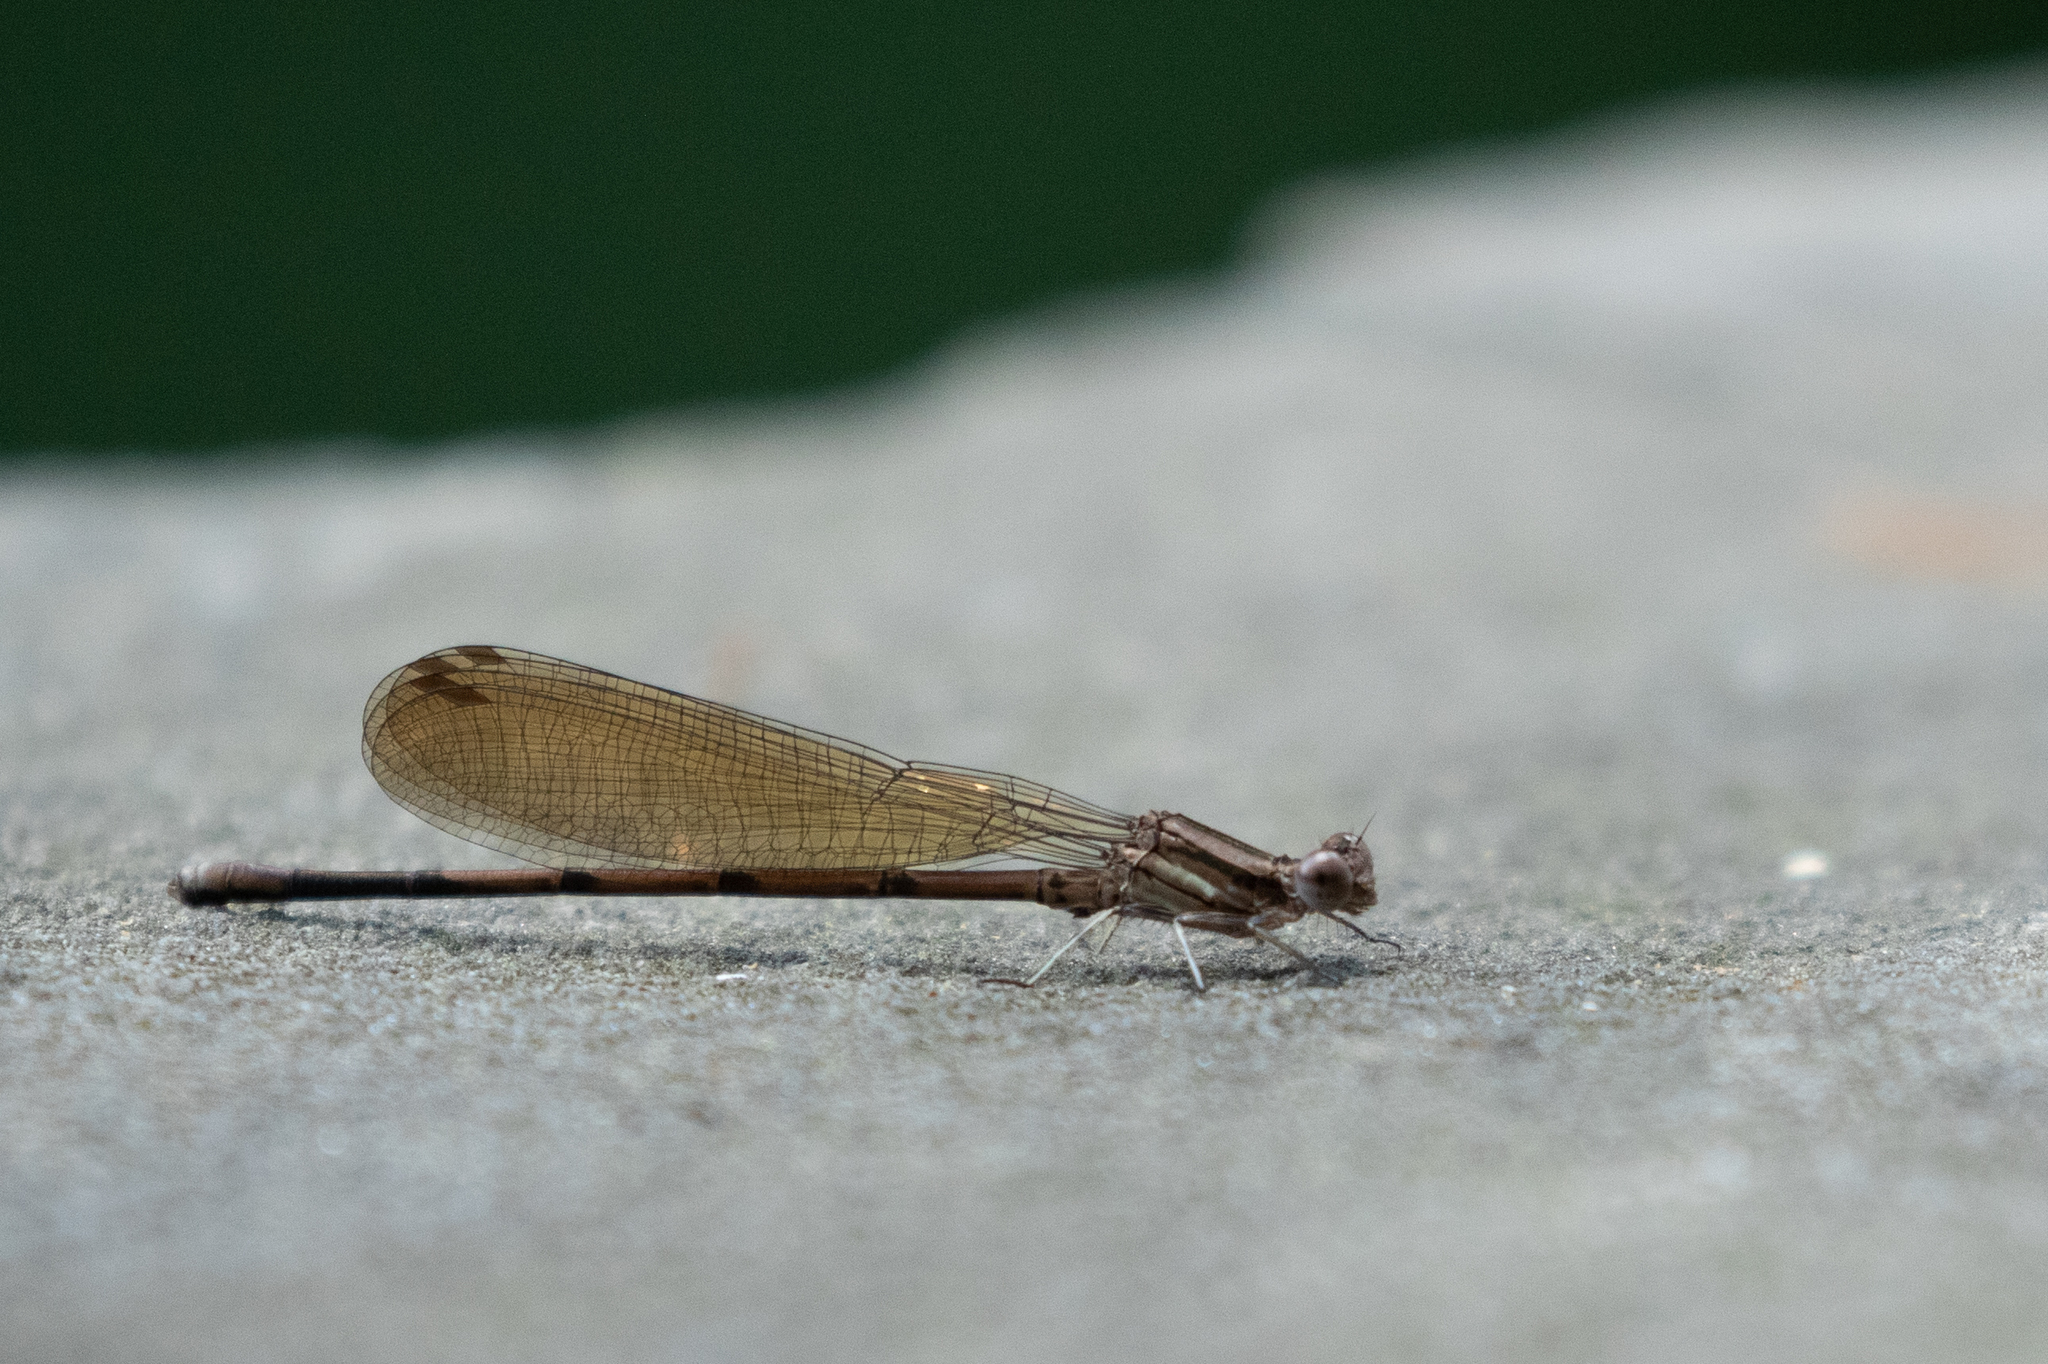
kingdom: Animalia
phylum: Arthropoda
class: Insecta
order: Odonata
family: Coenagrionidae
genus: Argia
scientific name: Argia fumipennis
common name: Variable dancer
